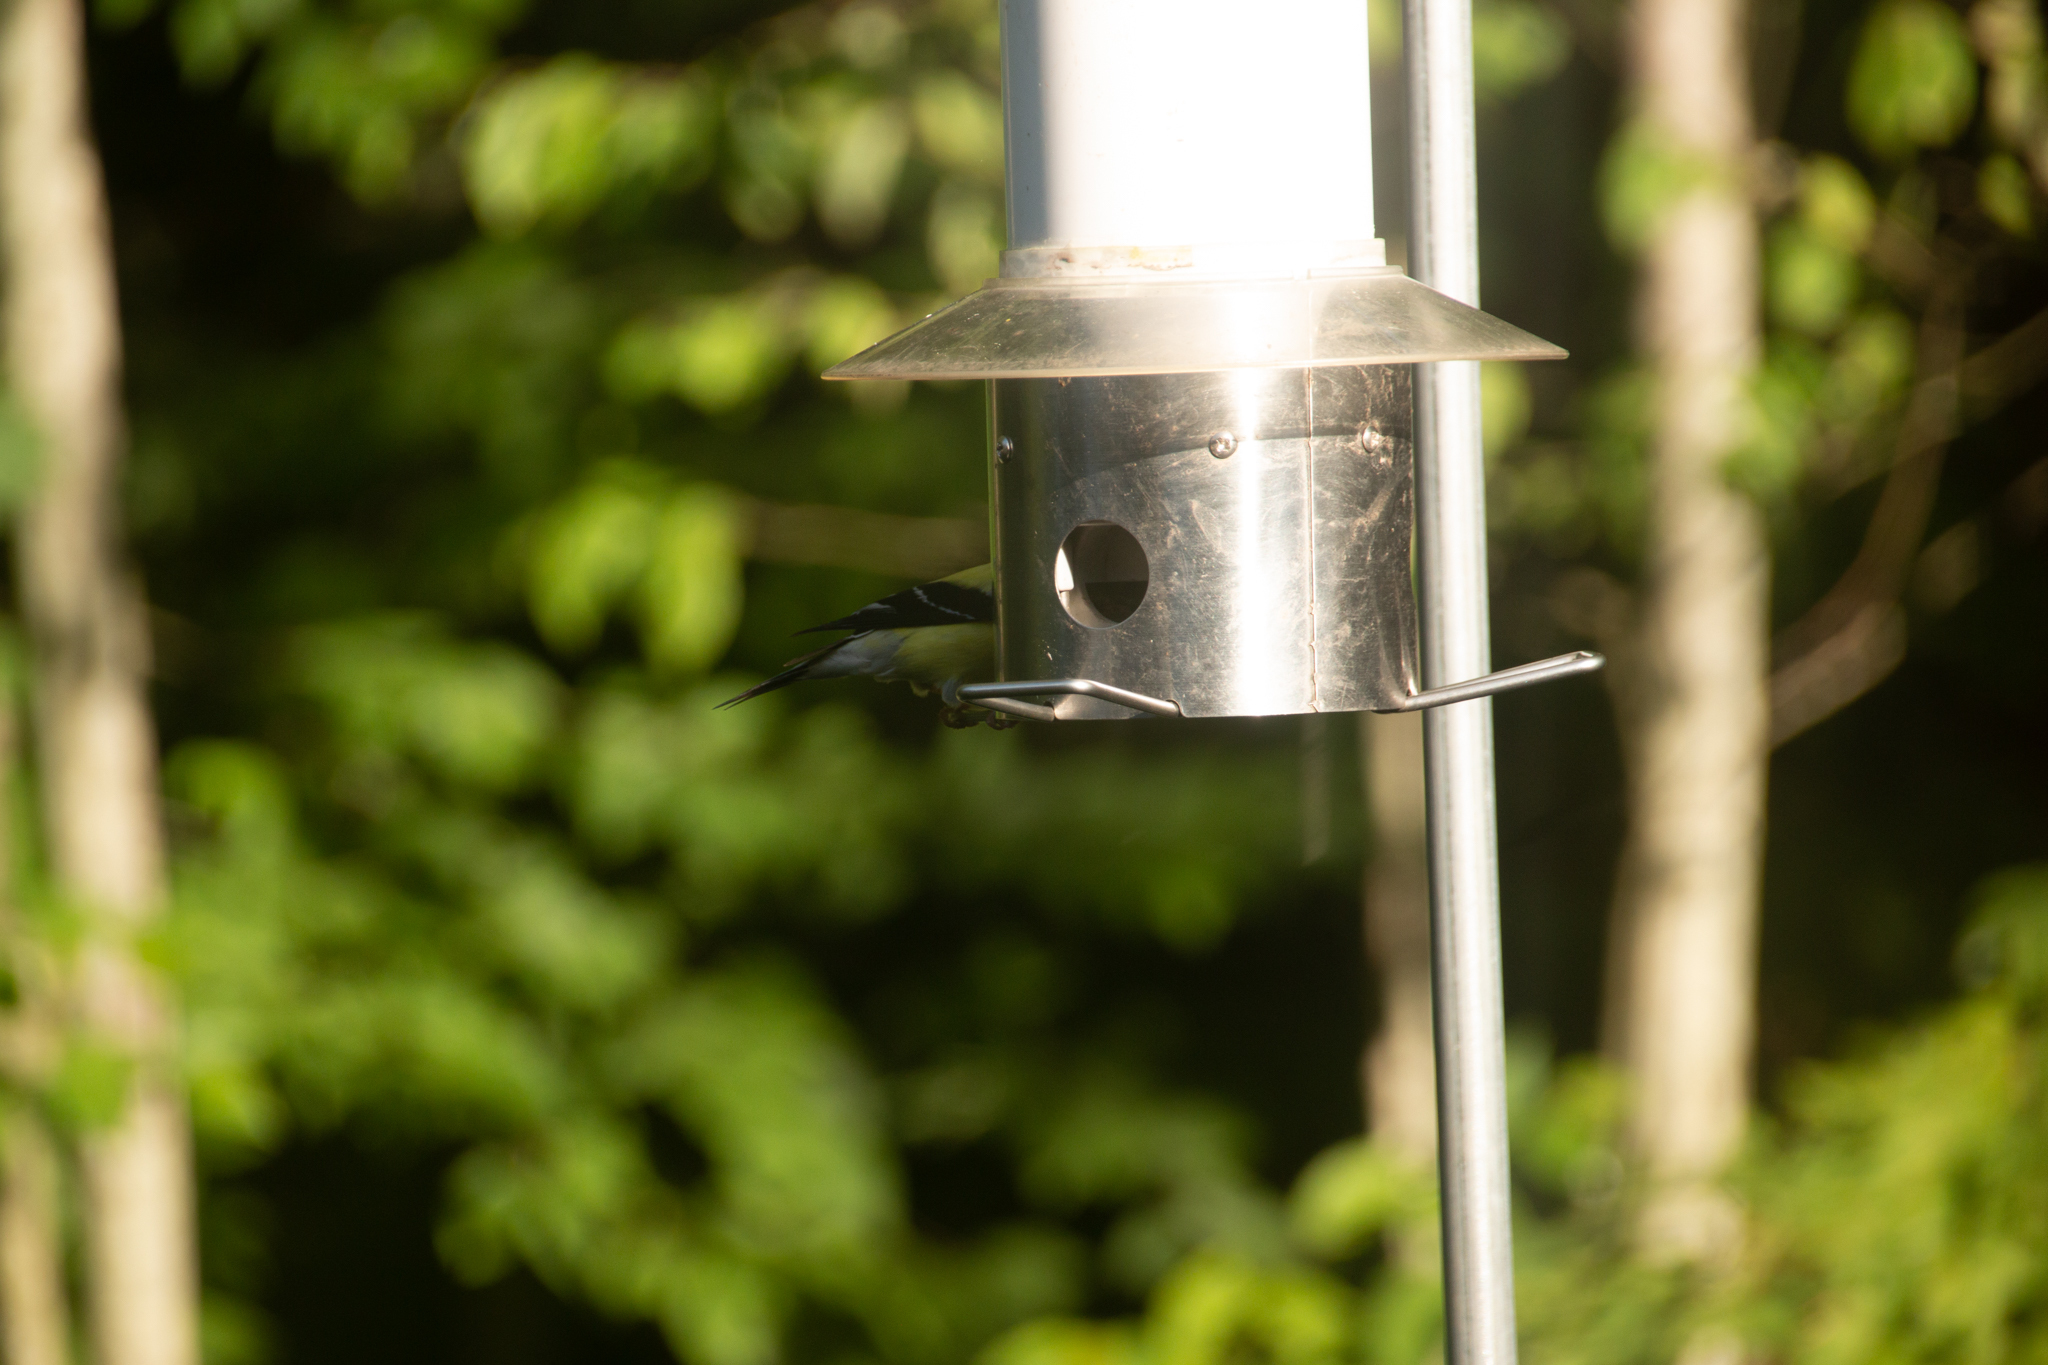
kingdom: Animalia
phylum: Chordata
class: Aves
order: Passeriformes
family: Fringillidae
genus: Spinus
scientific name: Spinus tristis
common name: American goldfinch
